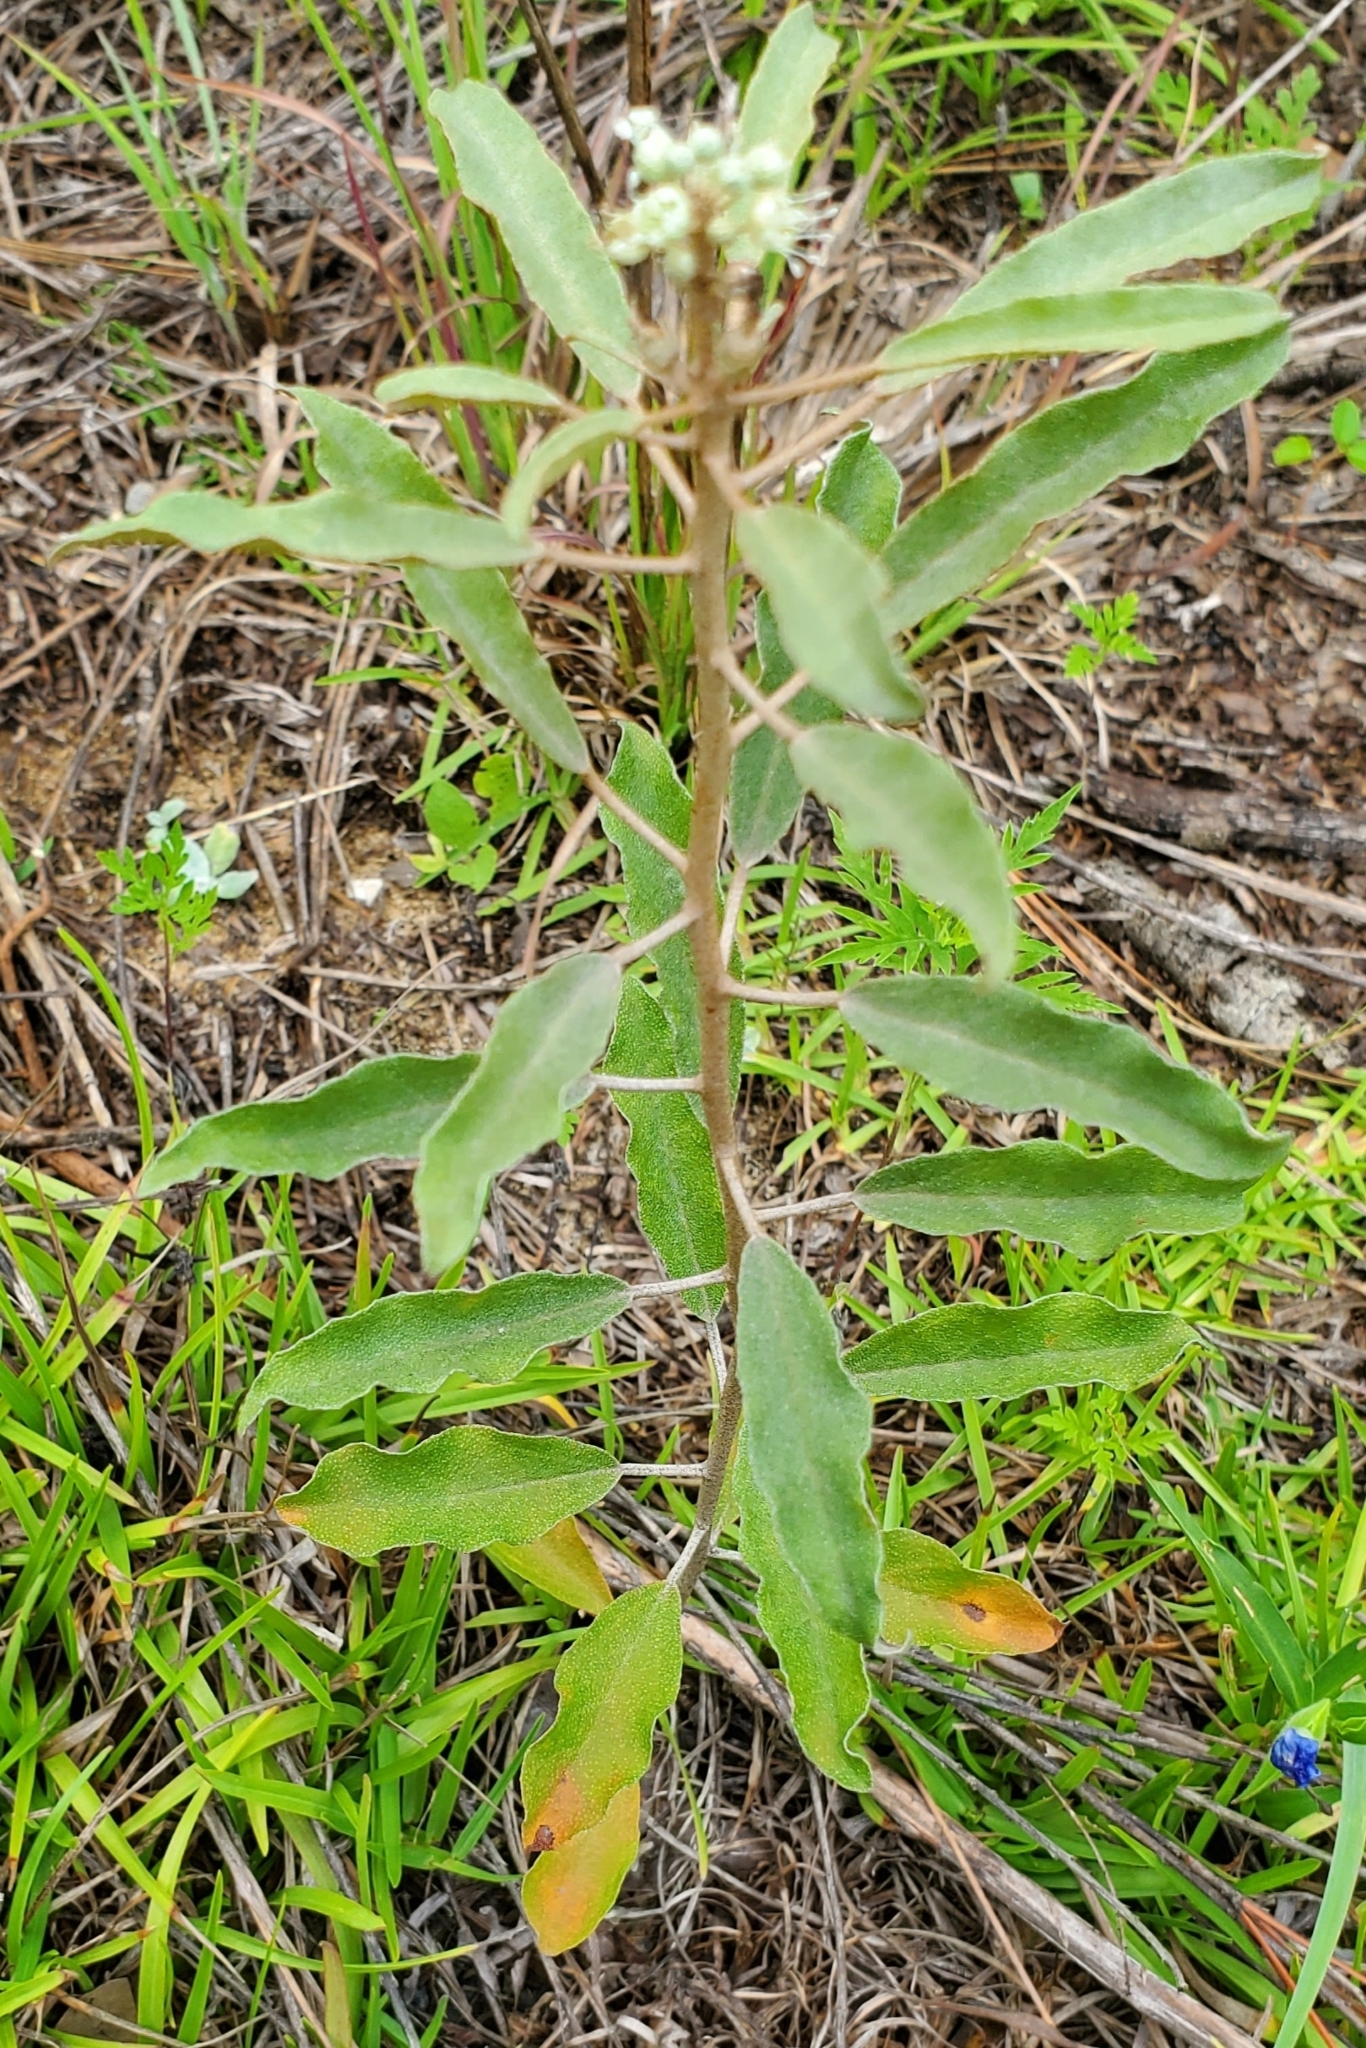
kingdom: Plantae
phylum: Tracheophyta
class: Magnoliopsida
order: Malpighiales
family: Euphorbiaceae
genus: Croton
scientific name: Croton argyranthemus
